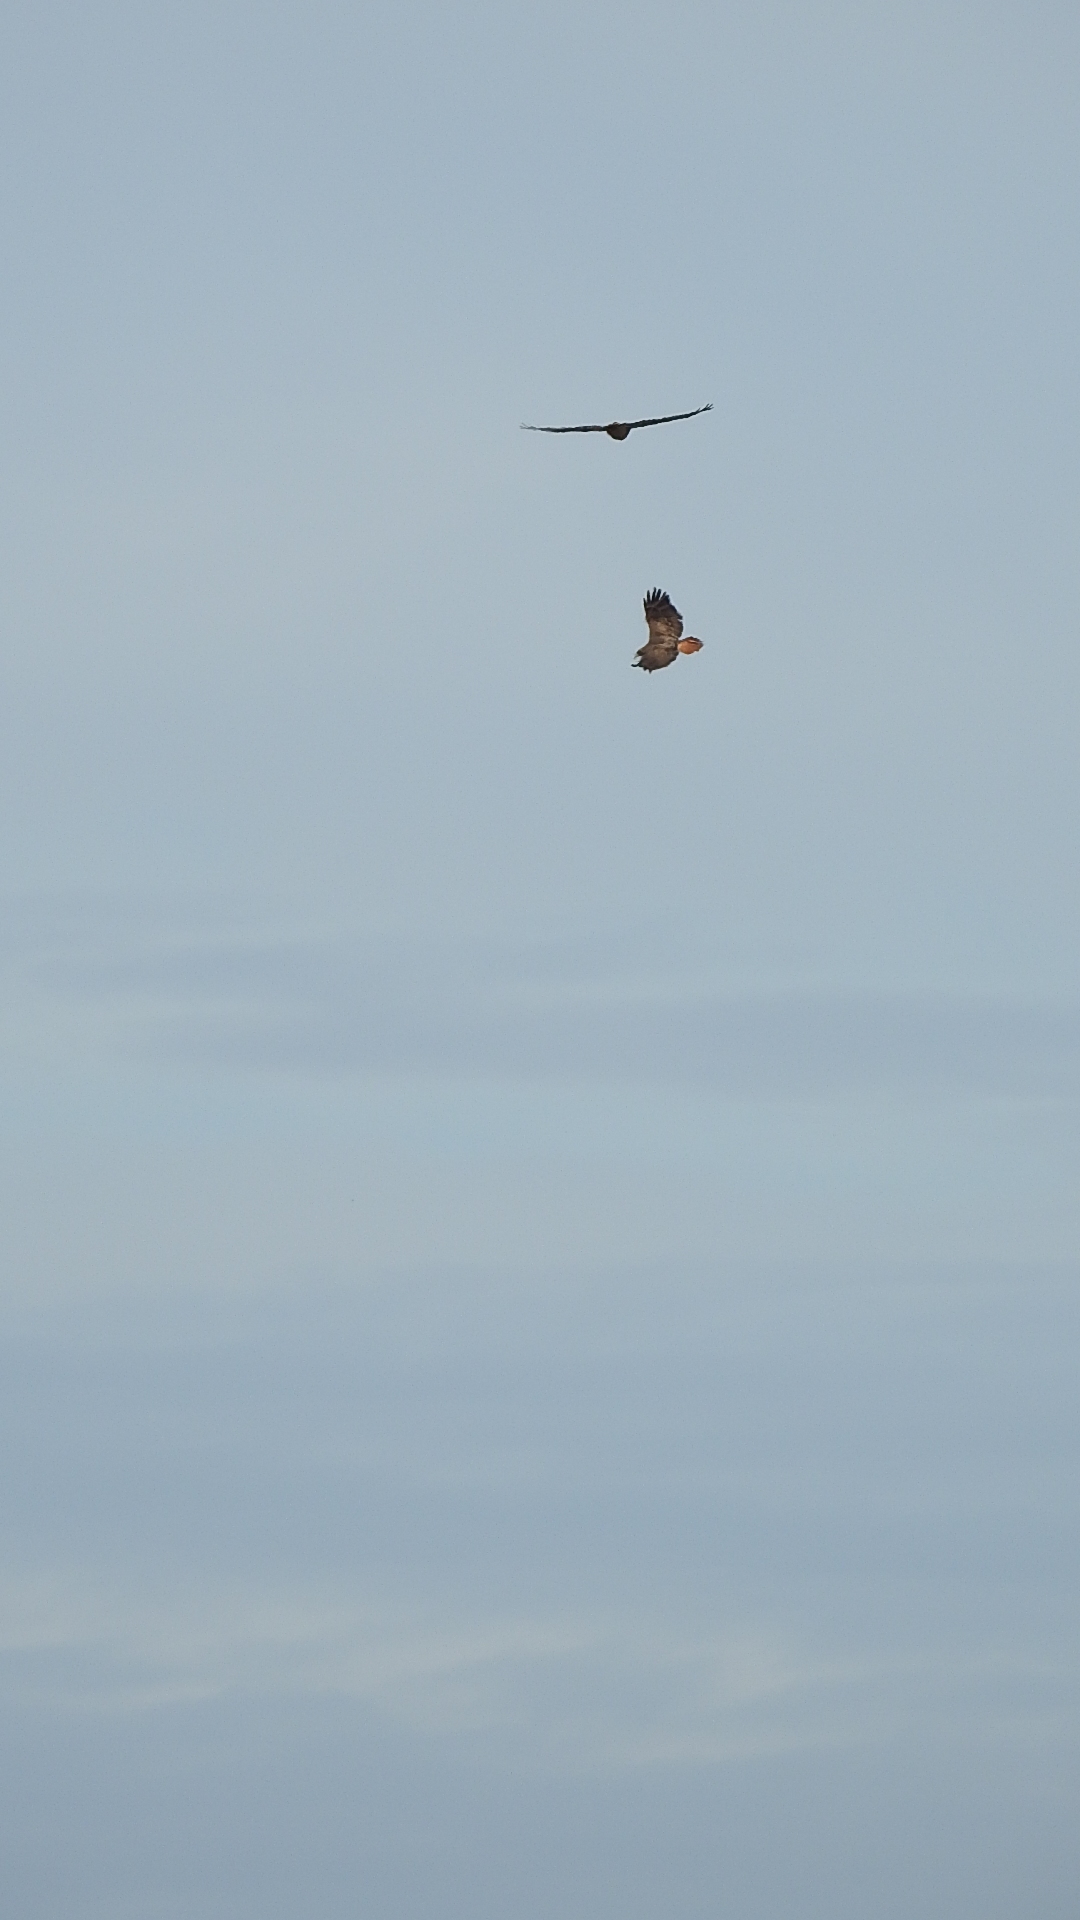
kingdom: Animalia
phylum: Chordata
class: Aves
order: Accipitriformes
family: Accipitridae
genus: Buteo
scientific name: Buteo jamaicensis
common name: Red-tailed hawk
